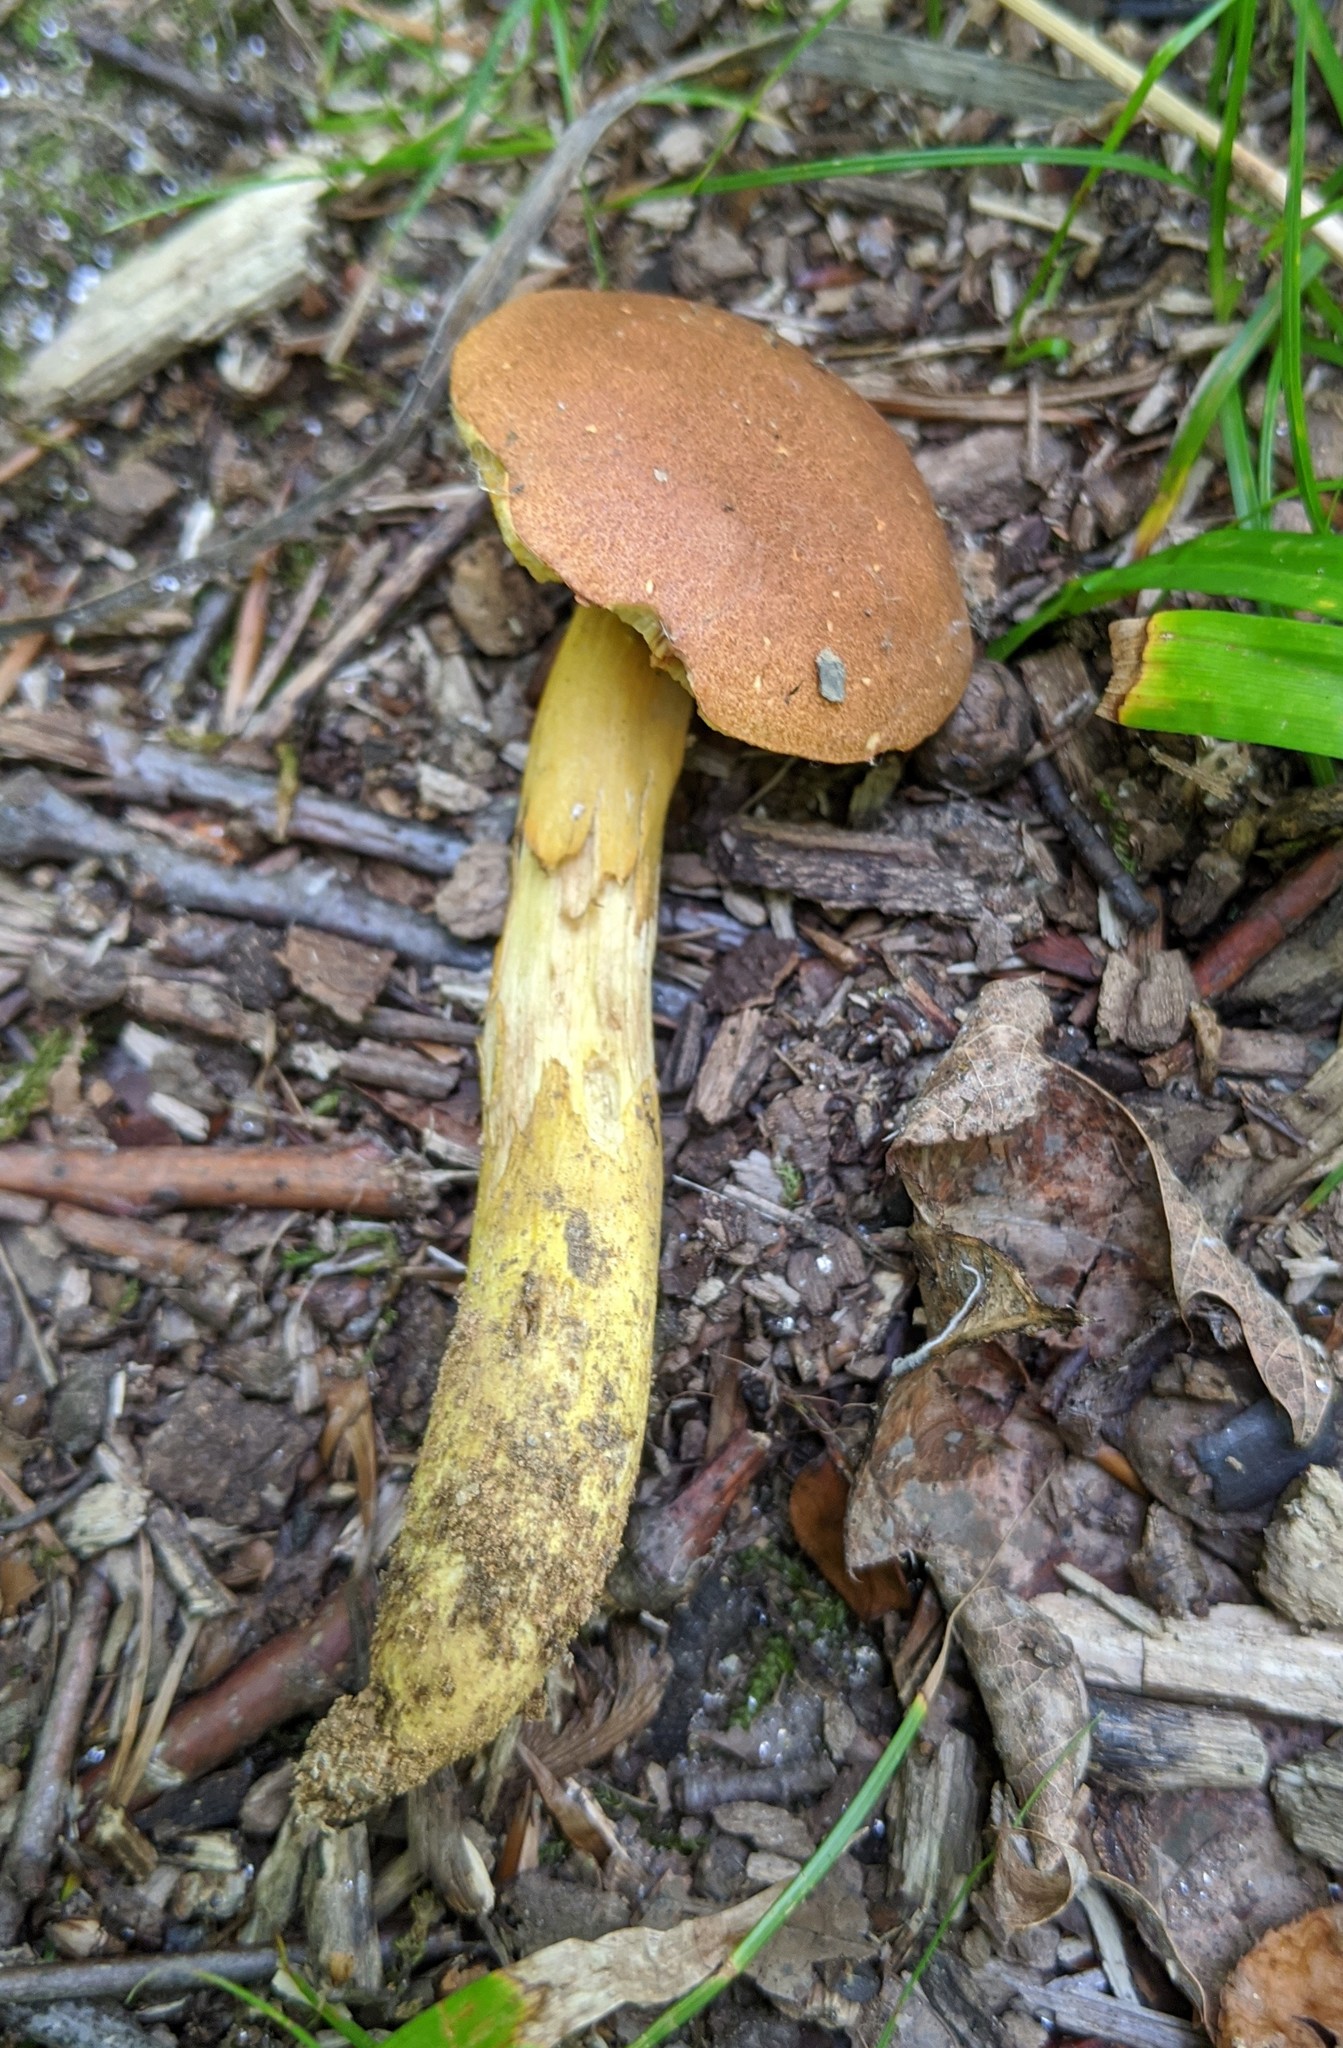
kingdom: Fungi
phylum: Basidiomycota
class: Agaricomycetes
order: Boletales
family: Boletaceae
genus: Aureoboletus
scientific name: Aureoboletus roxanae
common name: Roxane's bolete
